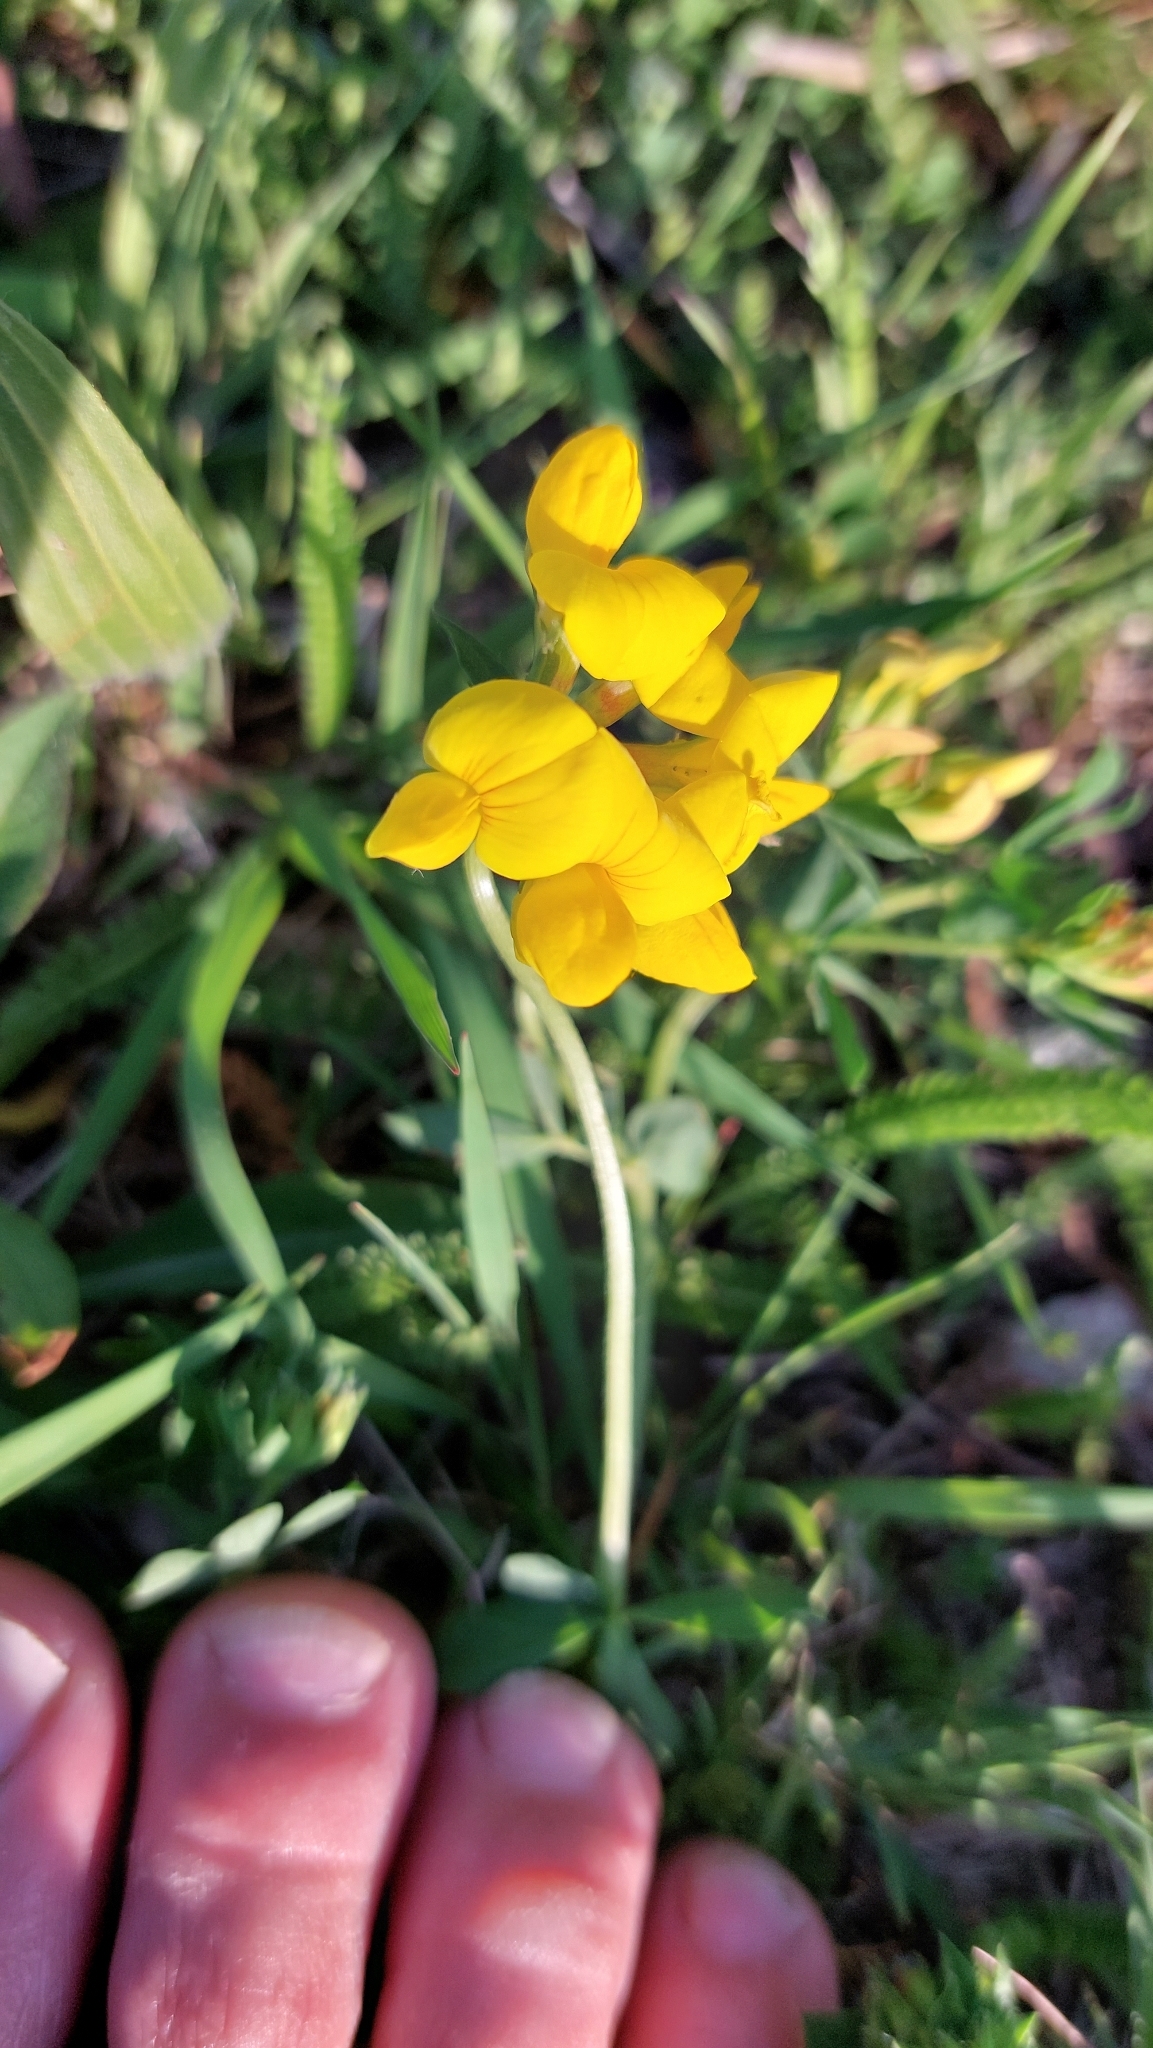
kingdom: Plantae
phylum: Tracheophyta
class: Magnoliopsida
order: Fabales
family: Fabaceae
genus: Lotus
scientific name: Lotus corniculatus
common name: Common bird's-foot-trefoil
